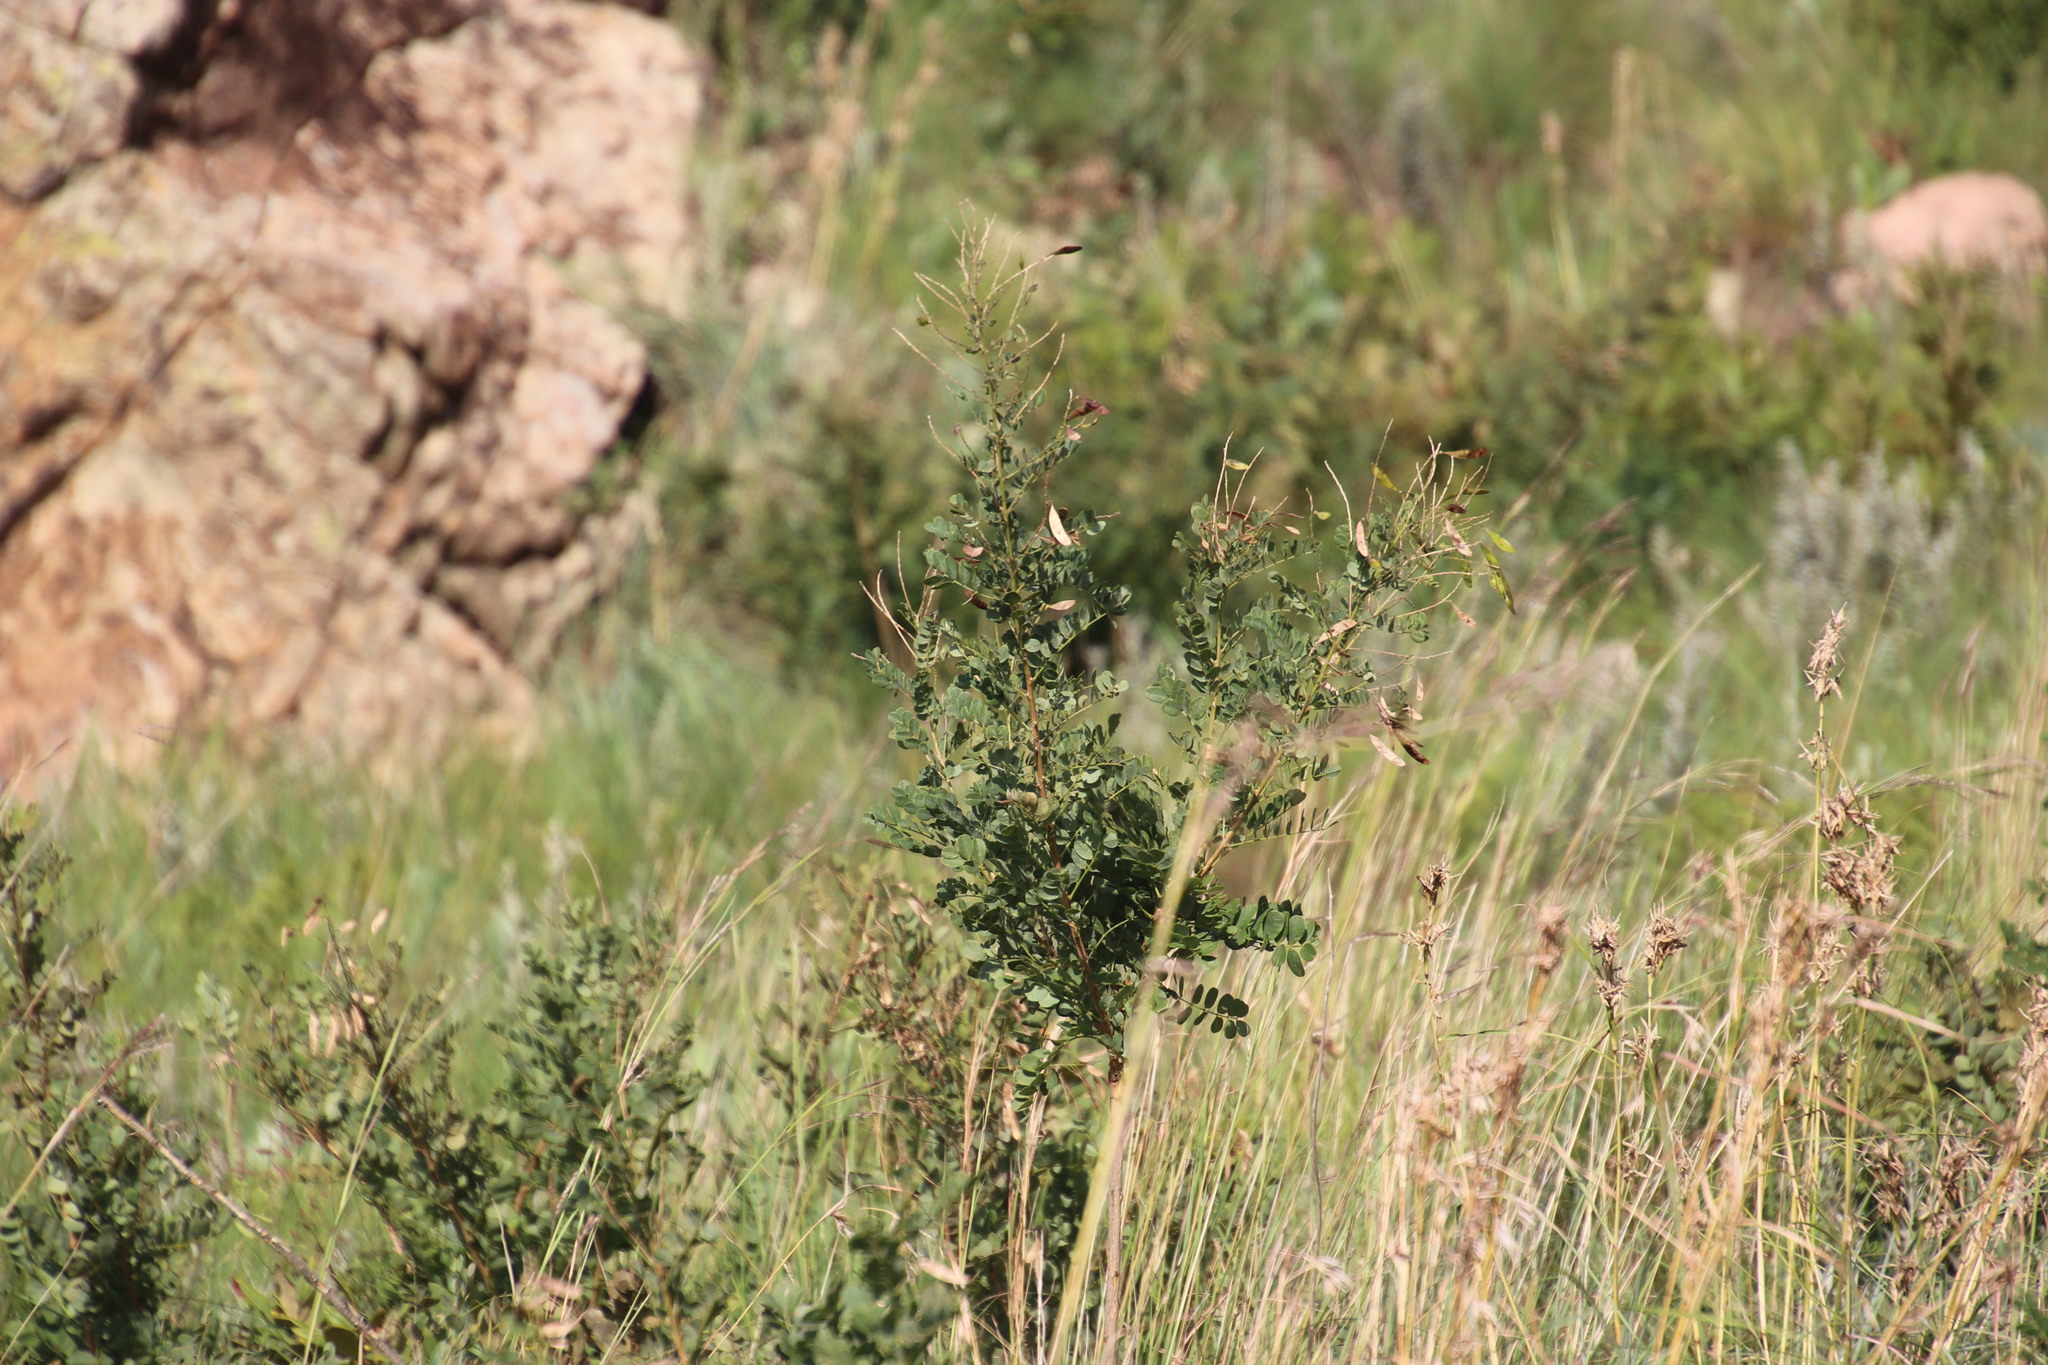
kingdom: Plantae
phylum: Tracheophyta
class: Magnoliopsida
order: Fabales
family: Fabaceae
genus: Calpurnia
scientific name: Calpurnia reflexa
